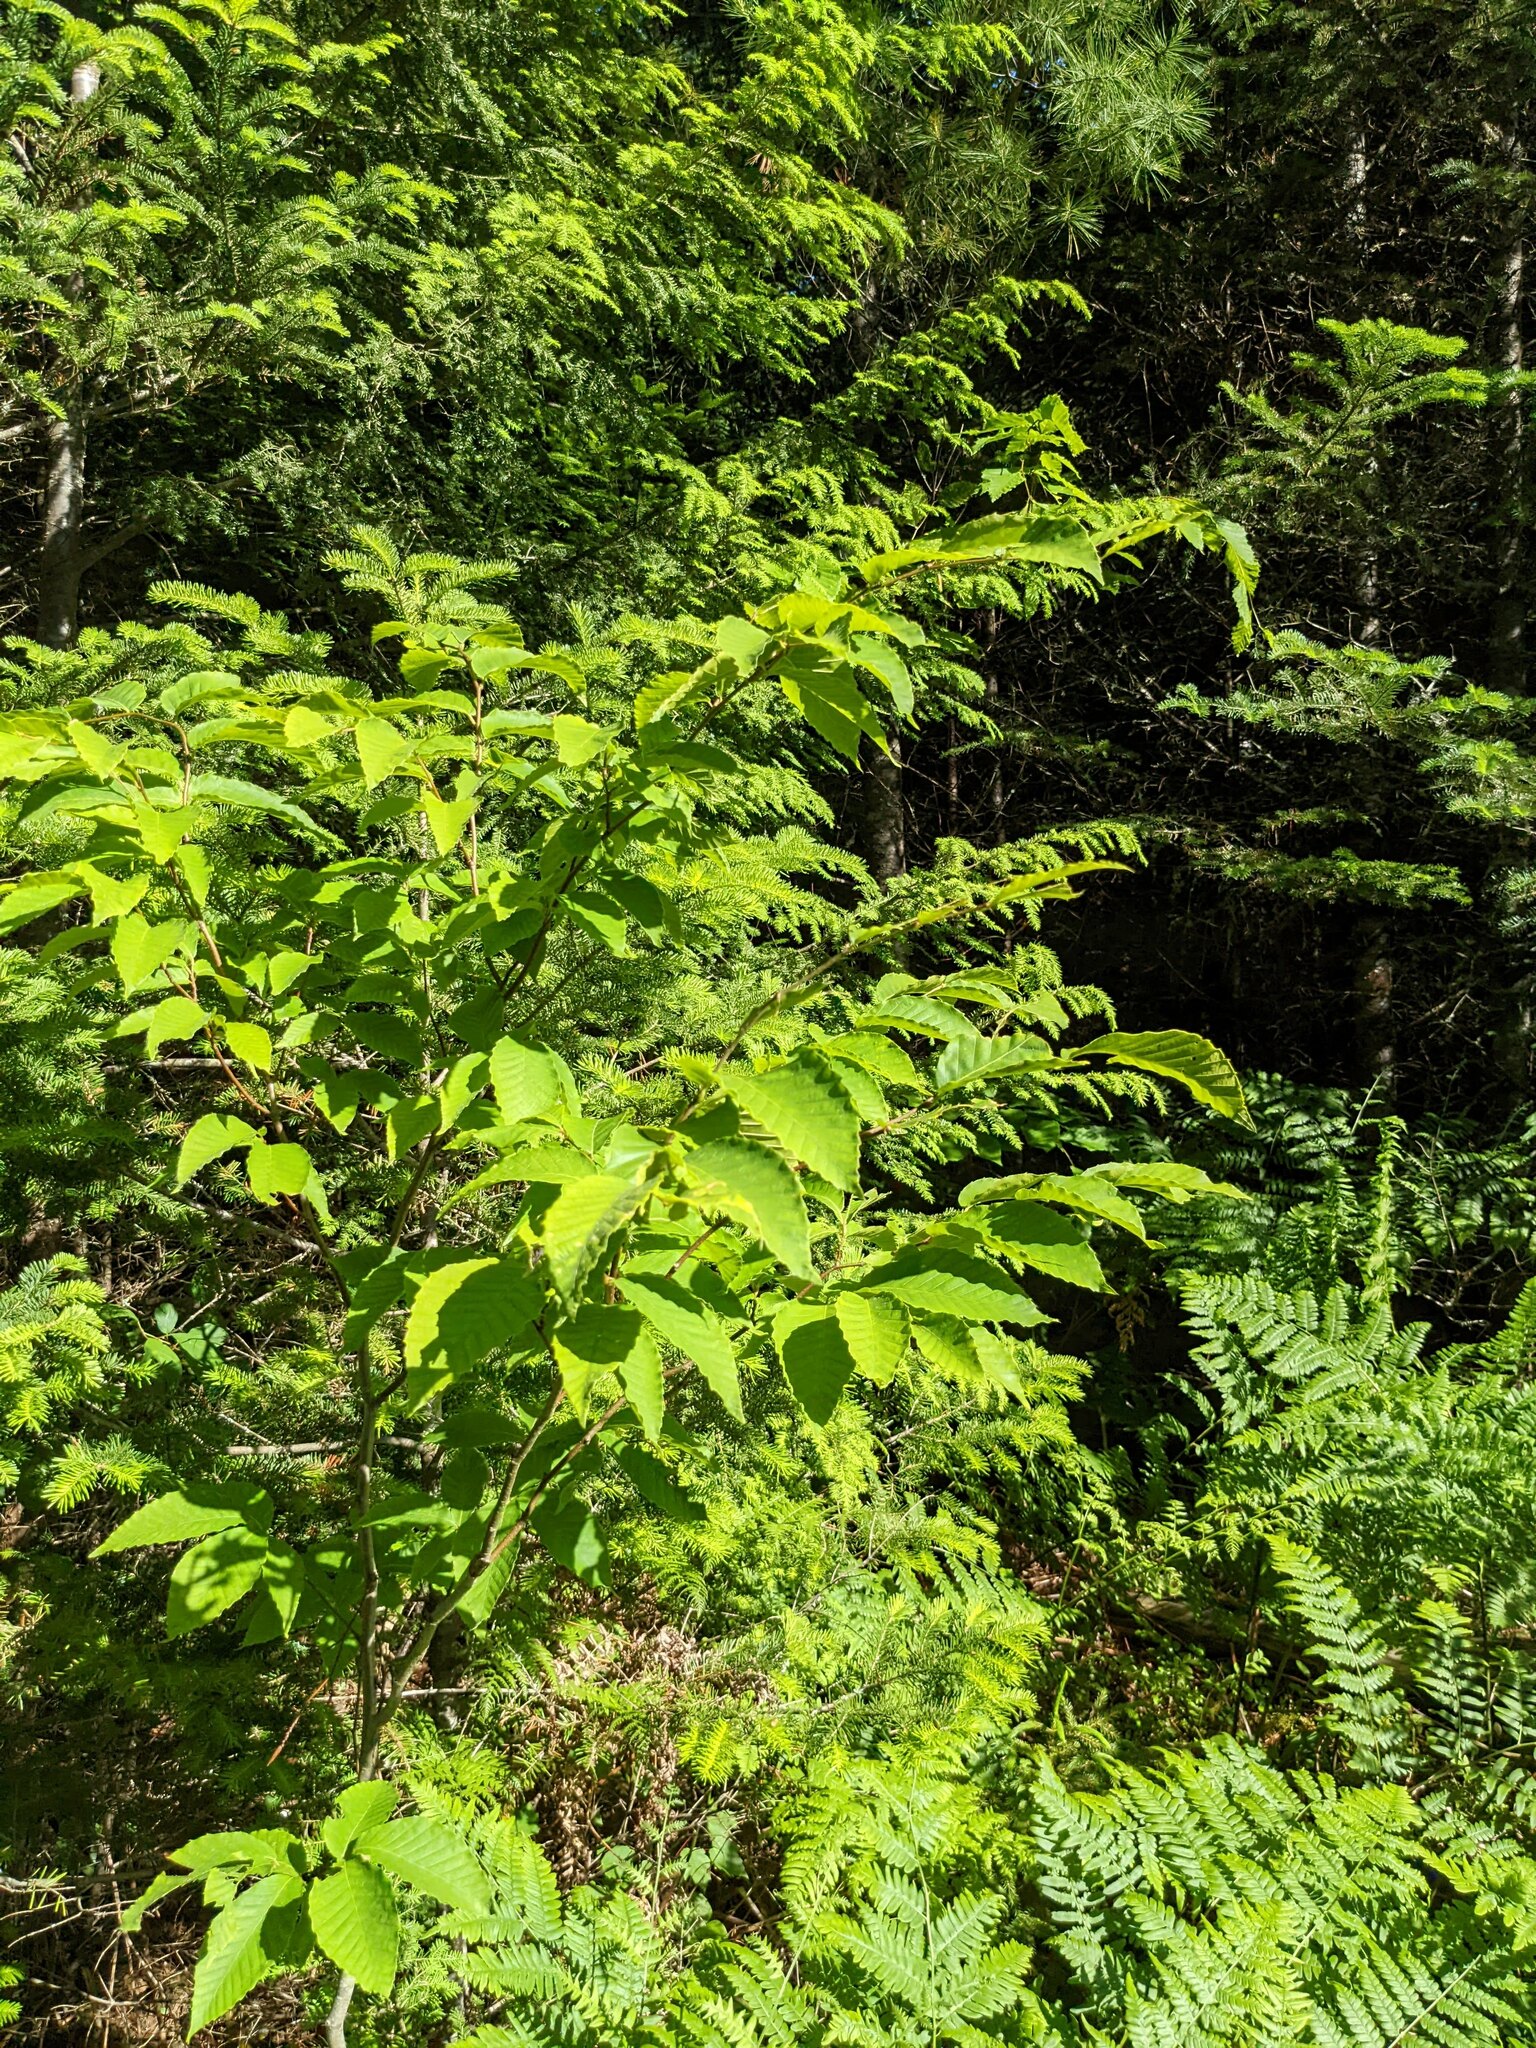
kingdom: Plantae
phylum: Tracheophyta
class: Magnoliopsida
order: Fagales
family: Fagaceae
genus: Fagus
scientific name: Fagus grandifolia
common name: American beech
